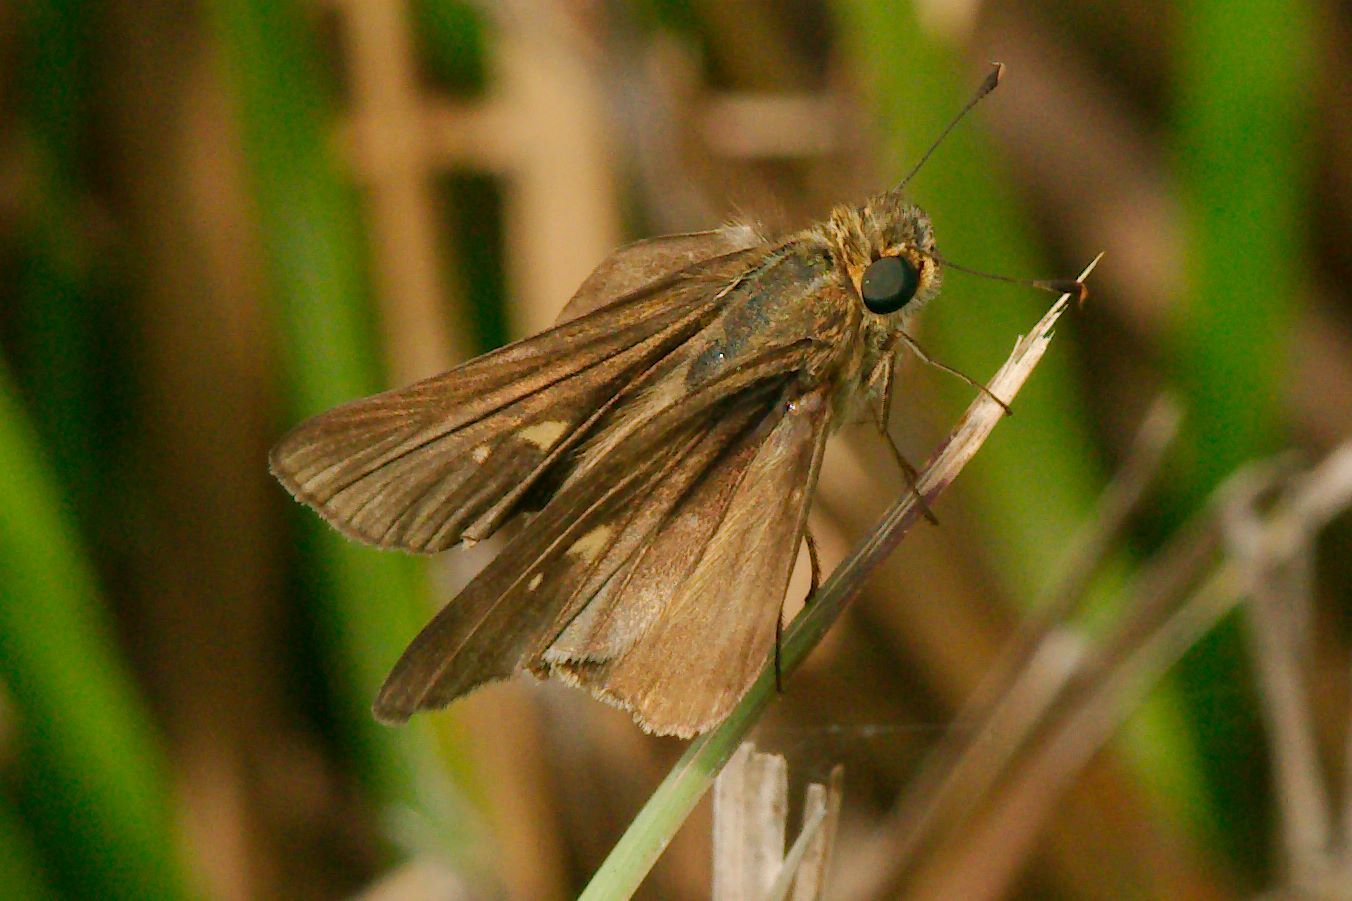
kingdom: Animalia
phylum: Arthropoda
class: Insecta
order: Lepidoptera
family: Hesperiidae
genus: Panoquina
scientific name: Panoquina ocola
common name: Ocola skipper
